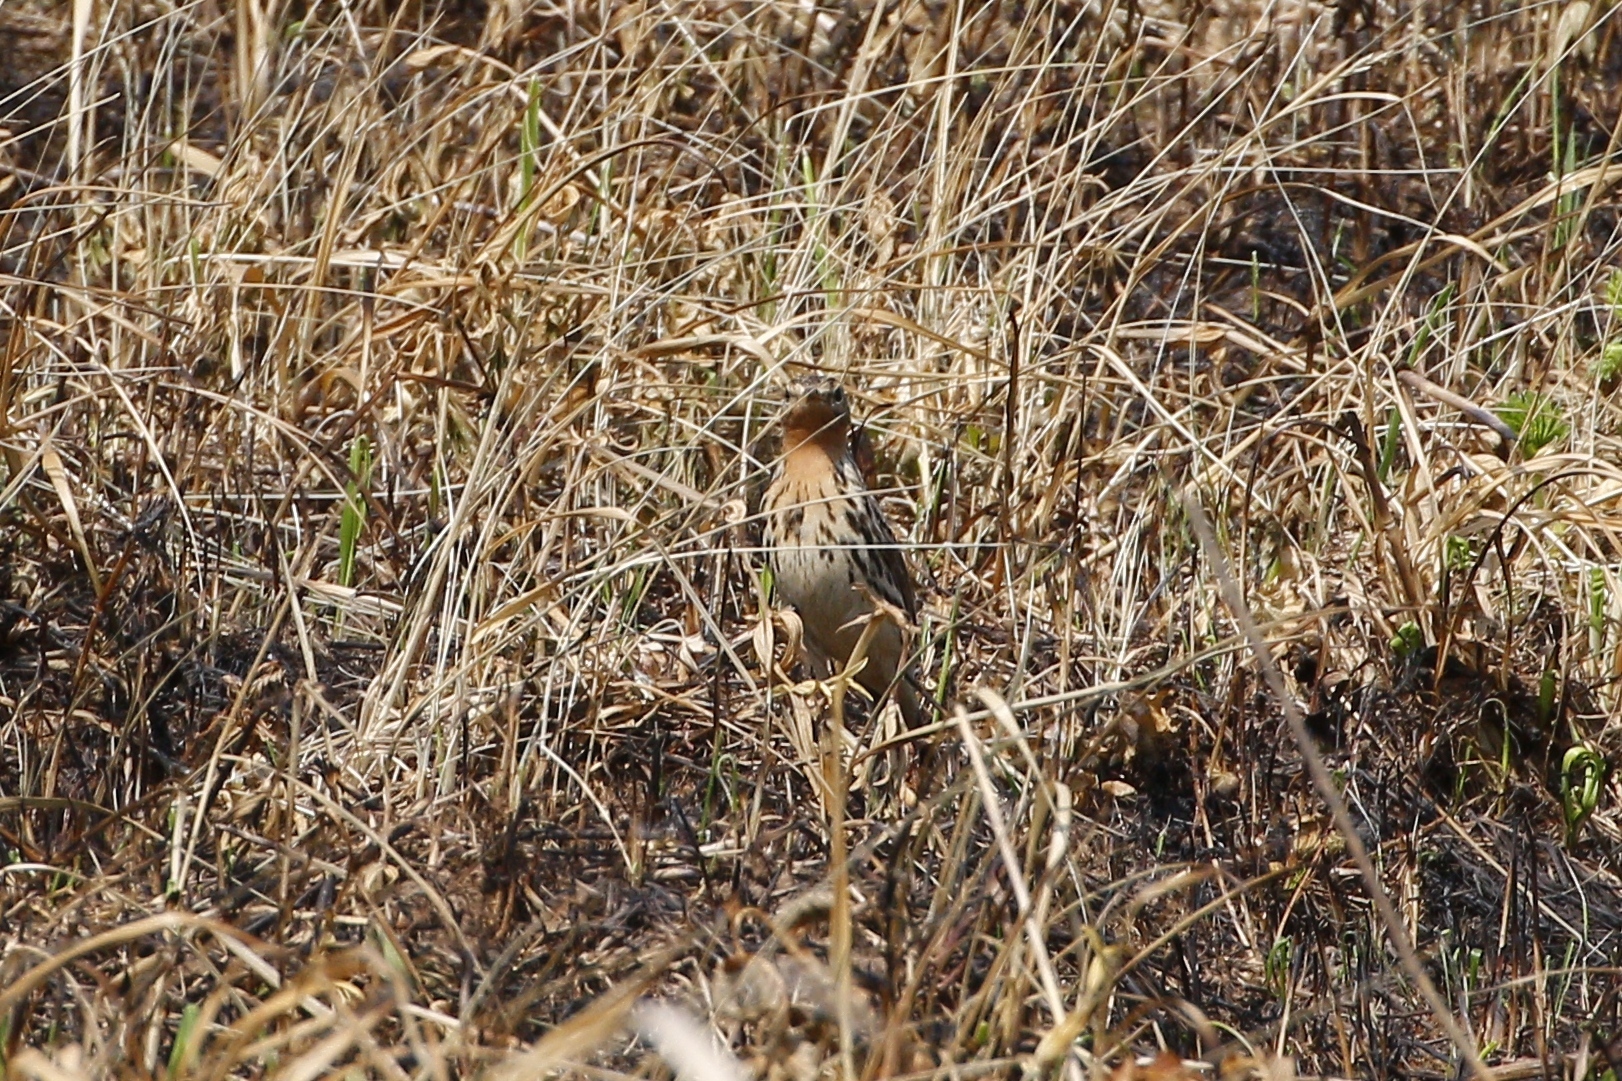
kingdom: Animalia
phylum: Chordata
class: Aves
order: Passeriformes
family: Motacillidae
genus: Anthus
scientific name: Anthus cervinus
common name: Red-throated pipit
